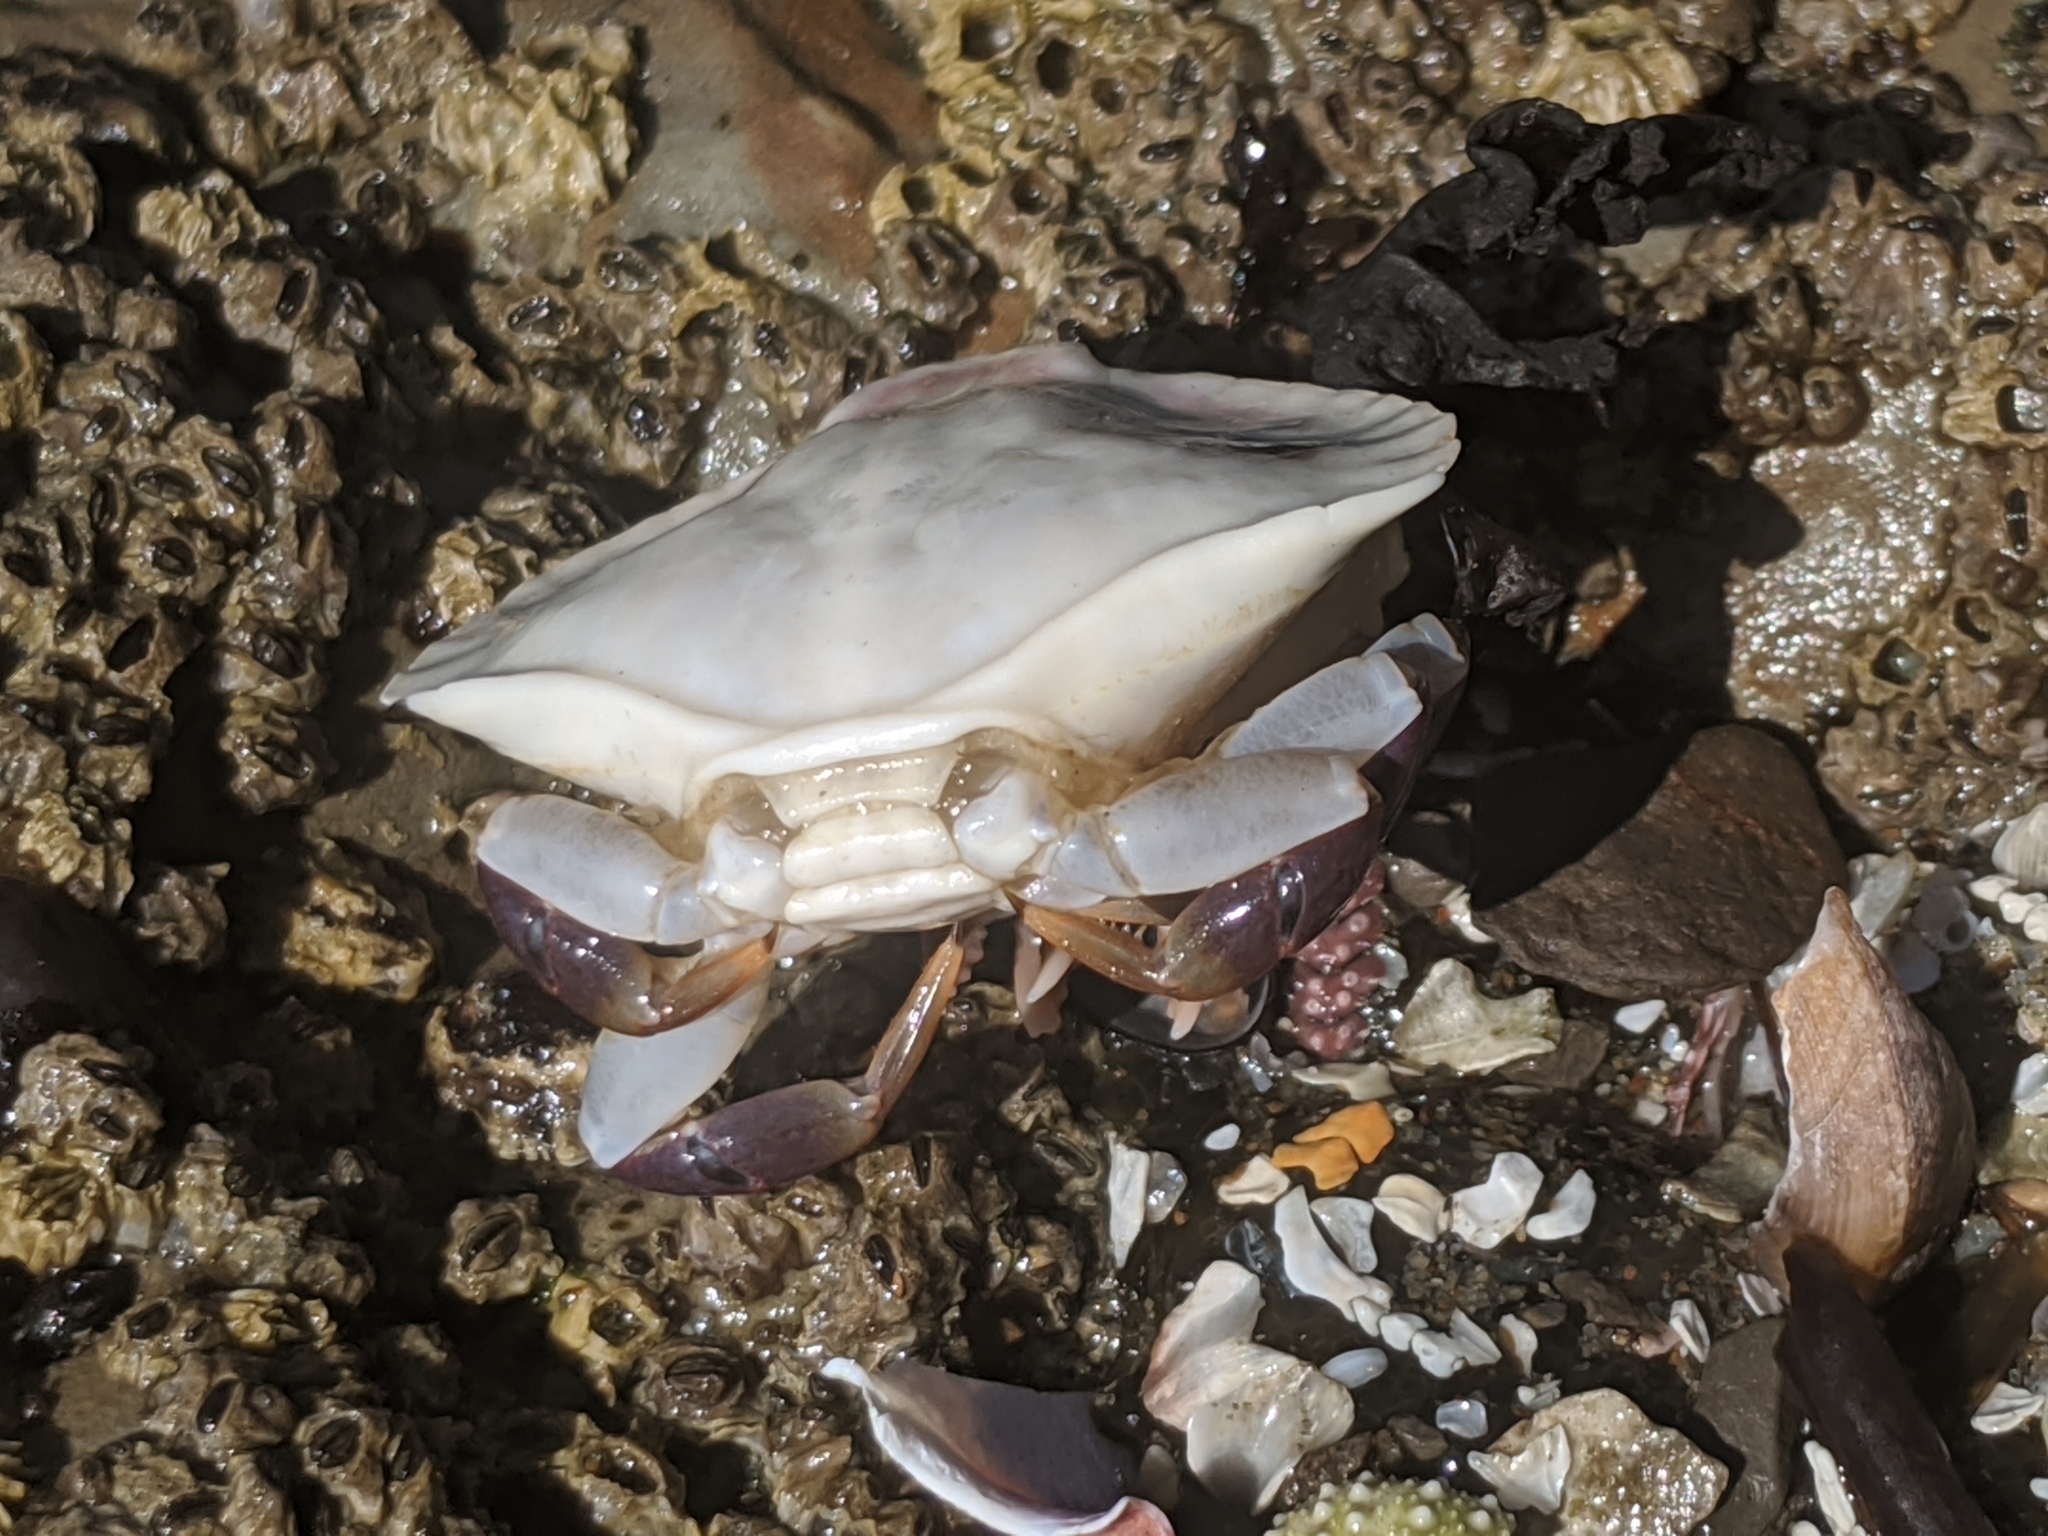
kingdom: Animalia
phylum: Arthropoda
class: Malacostraca
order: Decapoda
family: Cancridae
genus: Cancer
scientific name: Cancer productus
